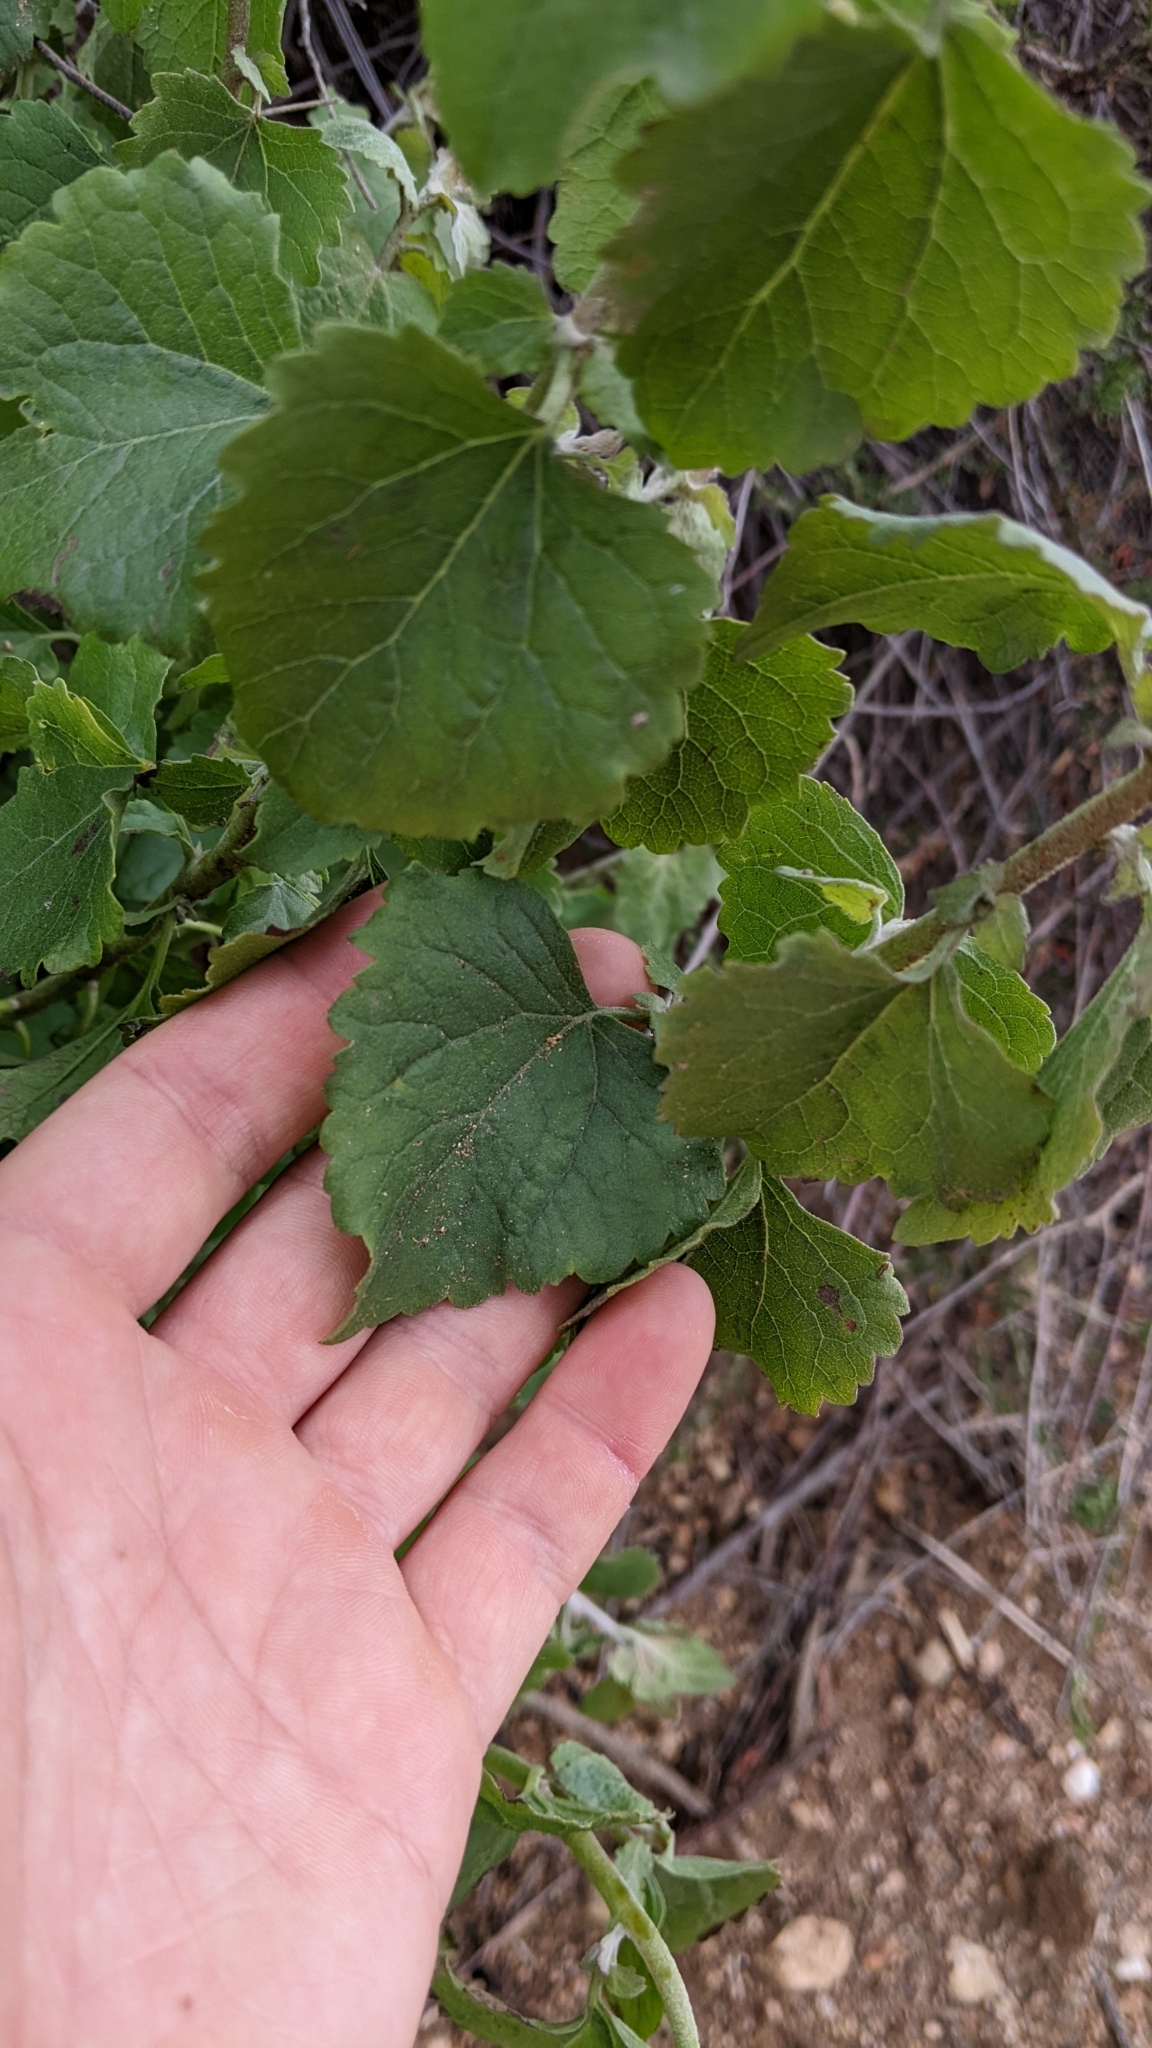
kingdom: Plantae
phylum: Tracheophyta
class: Magnoliopsida
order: Asterales
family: Asteraceae
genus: Brickellia
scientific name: Brickellia californica
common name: California brickellbush
